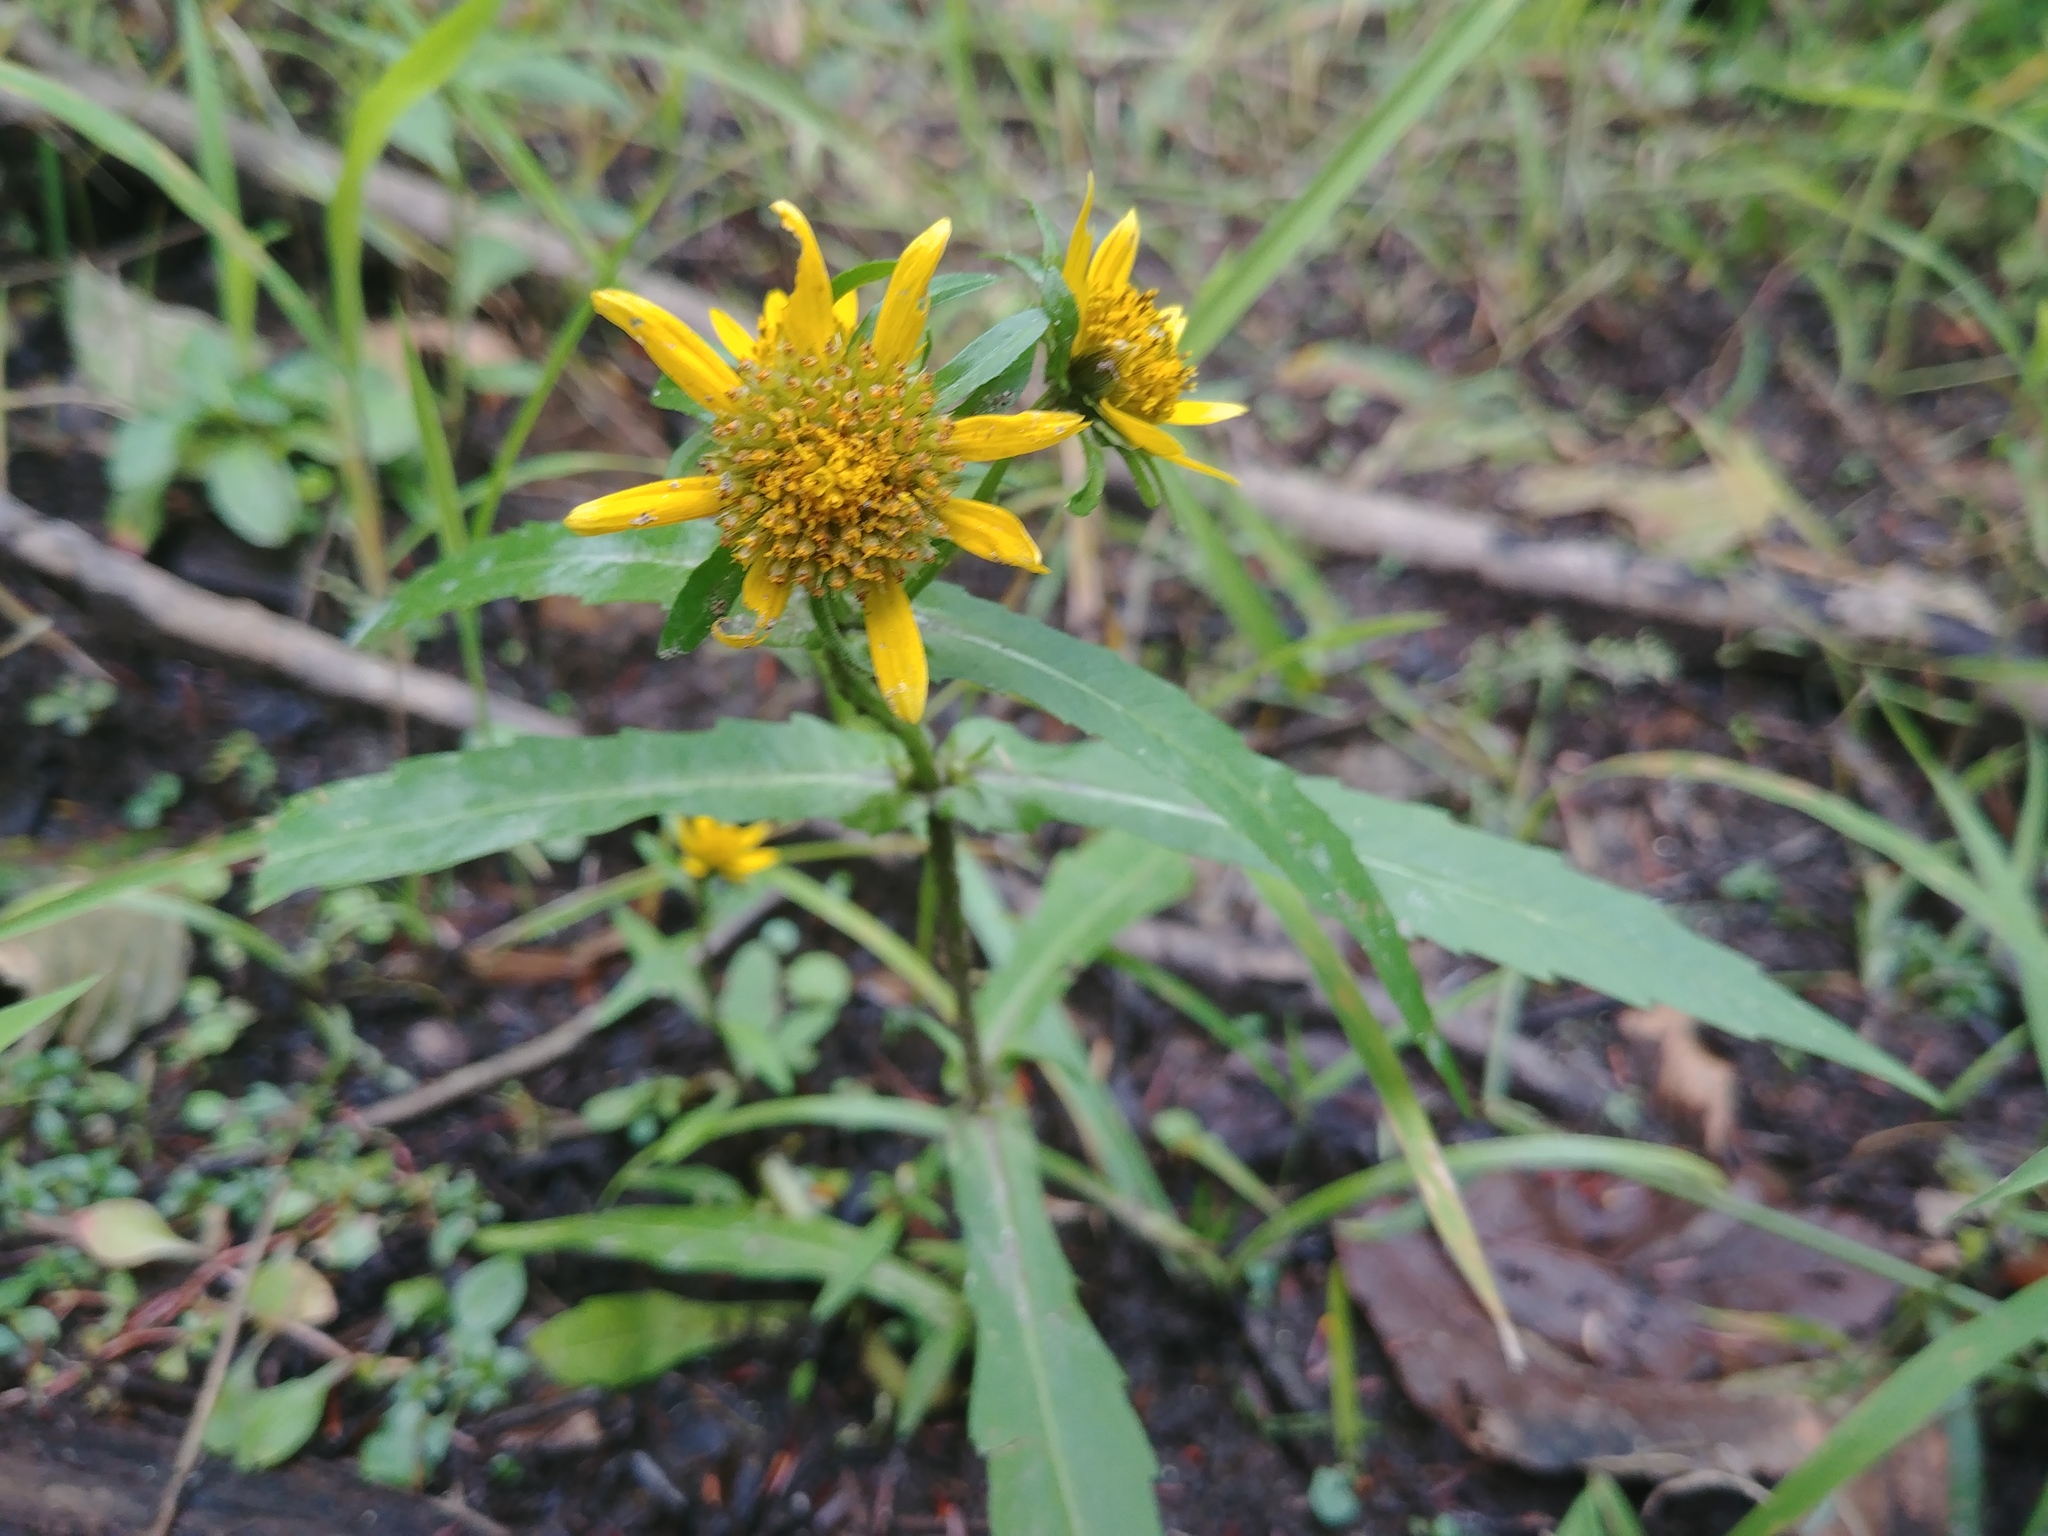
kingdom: Plantae
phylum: Tracheophyta
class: Magnoliopsida
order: Asterales
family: Asteraceae
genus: Bidens
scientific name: Bidens cernua
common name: Nodding bur-marigold
